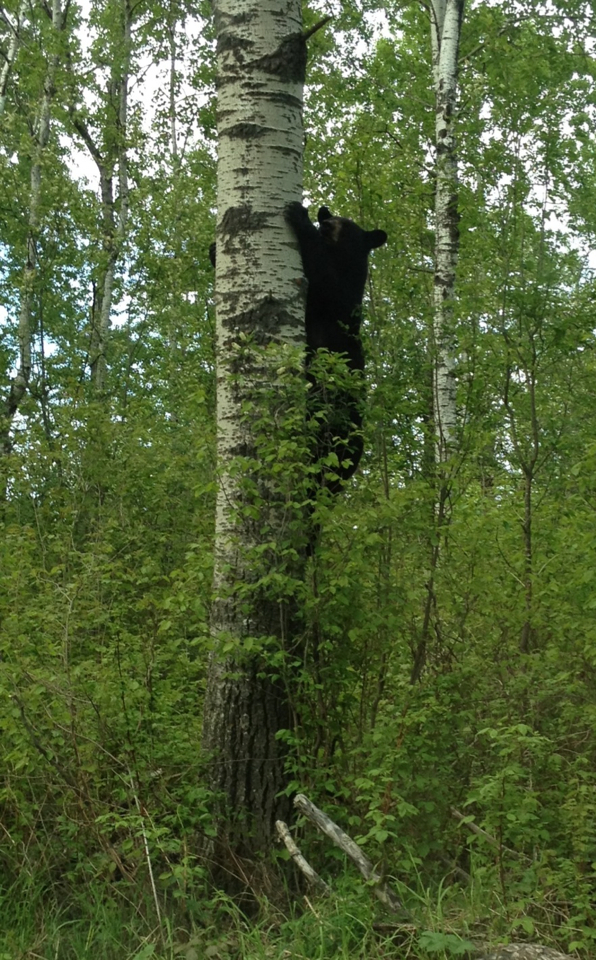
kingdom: Animalia
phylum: Chordata
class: Mammalia
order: Carnivora
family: Ursidae
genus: Ursus
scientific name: Ursus americanus
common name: American black bear
